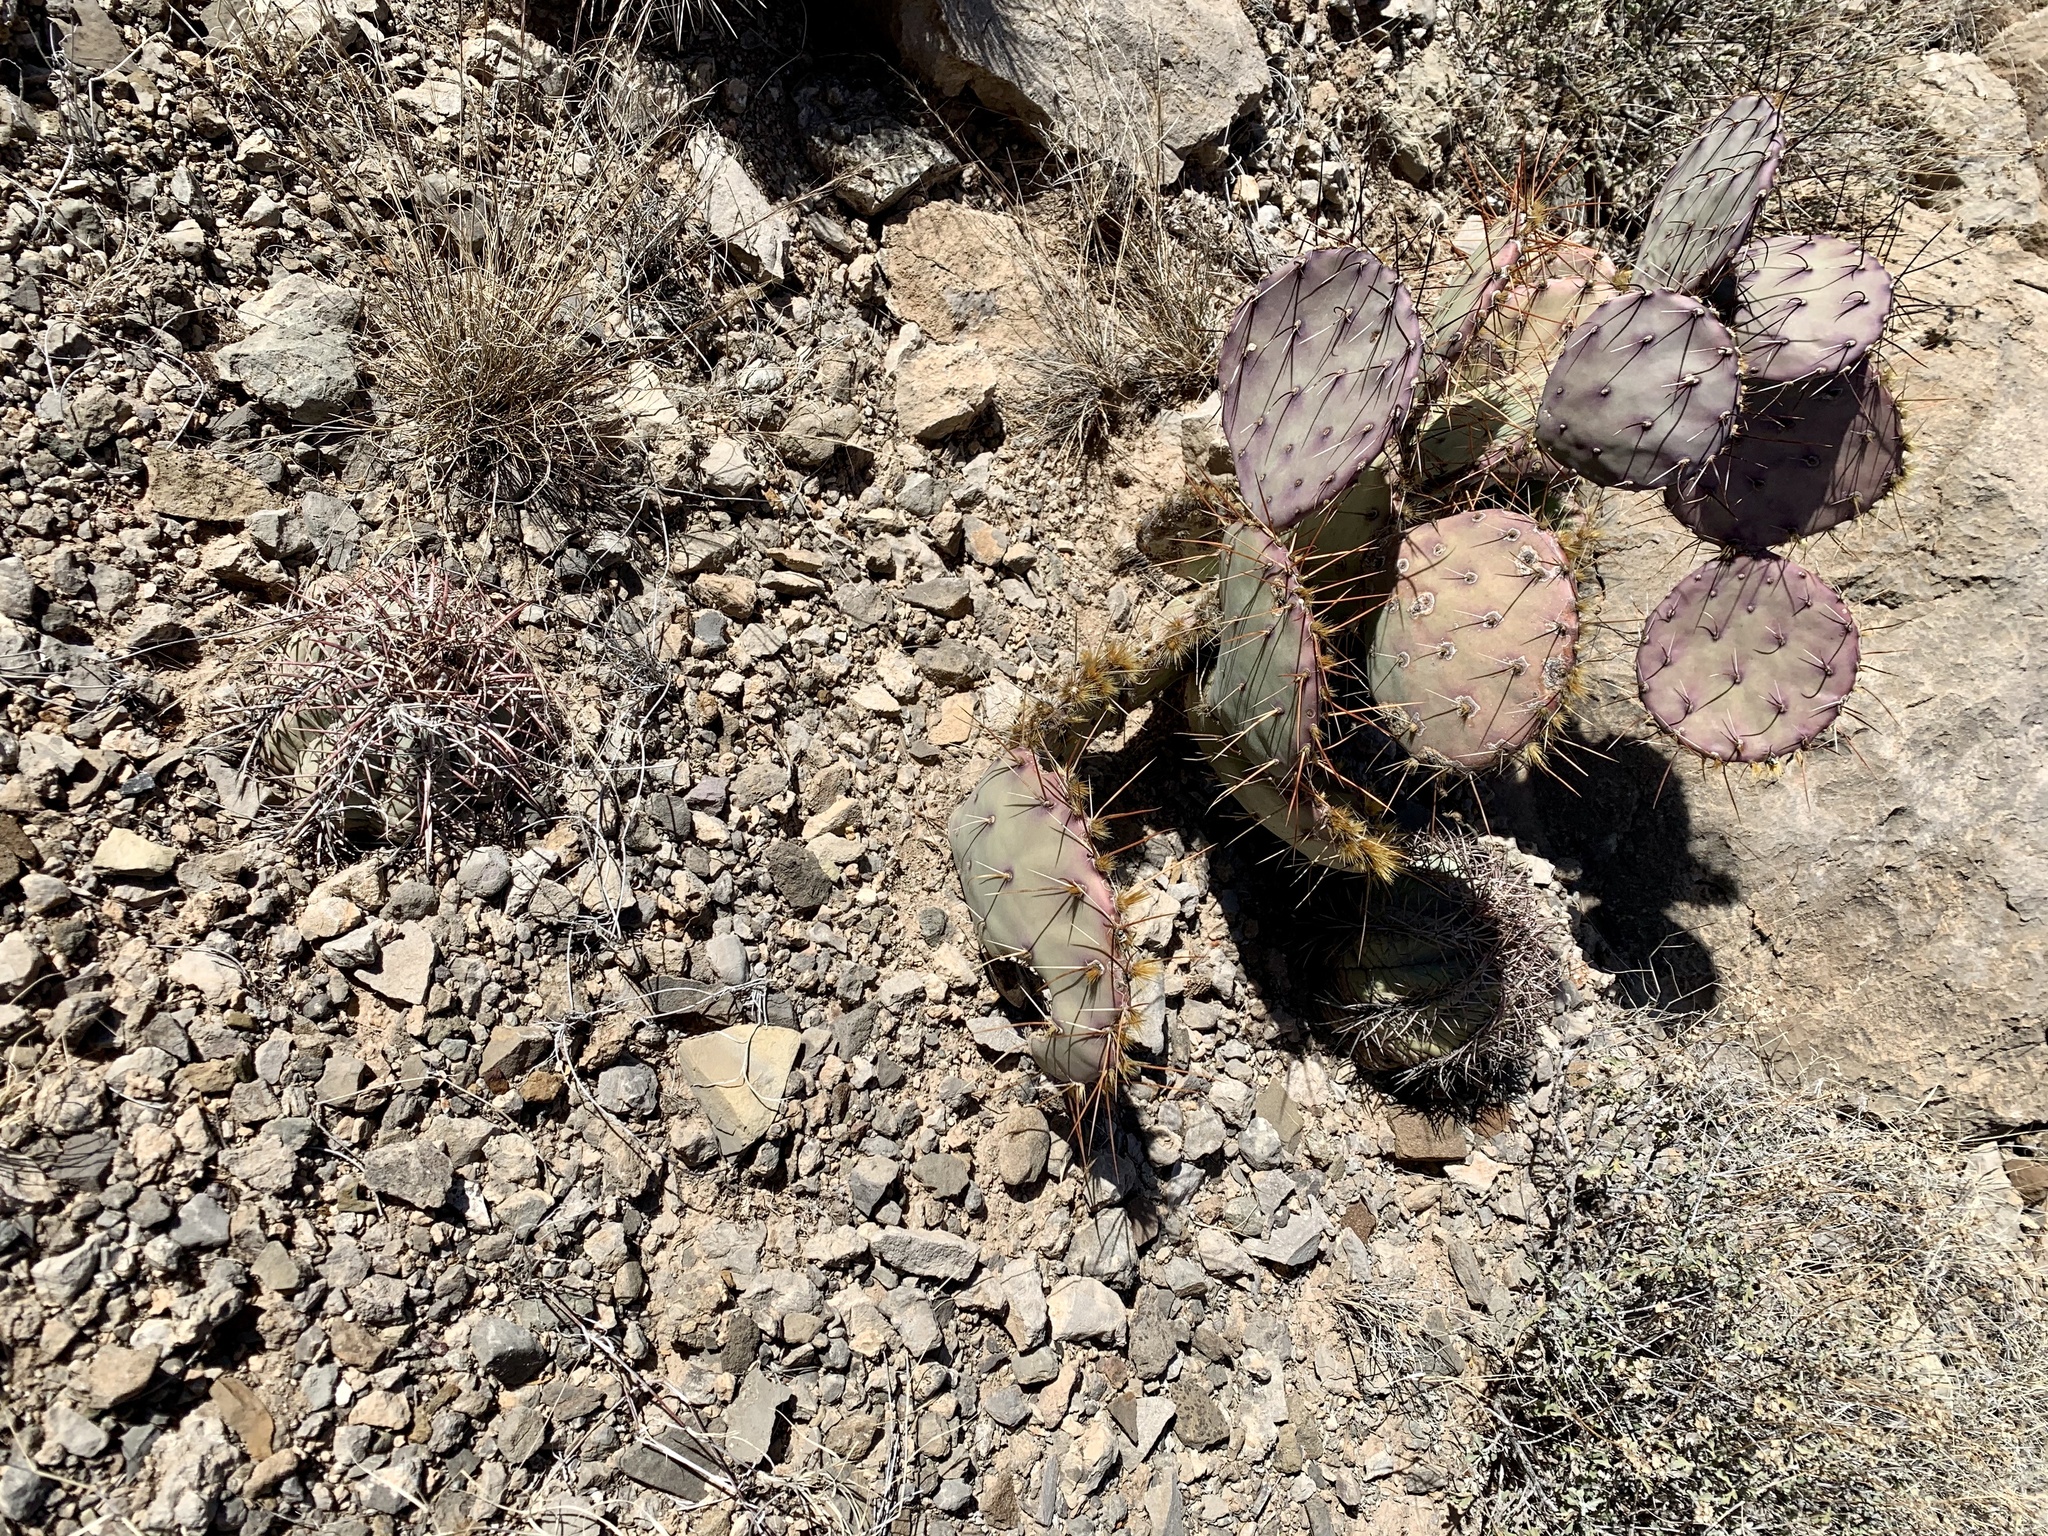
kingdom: Plantae
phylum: Tracheophyta
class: Magnoliopsida
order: Caryophyllales
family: Cactaceae
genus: Opuntia
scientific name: Opuntia macrocentra
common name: Purple prickly-pear
